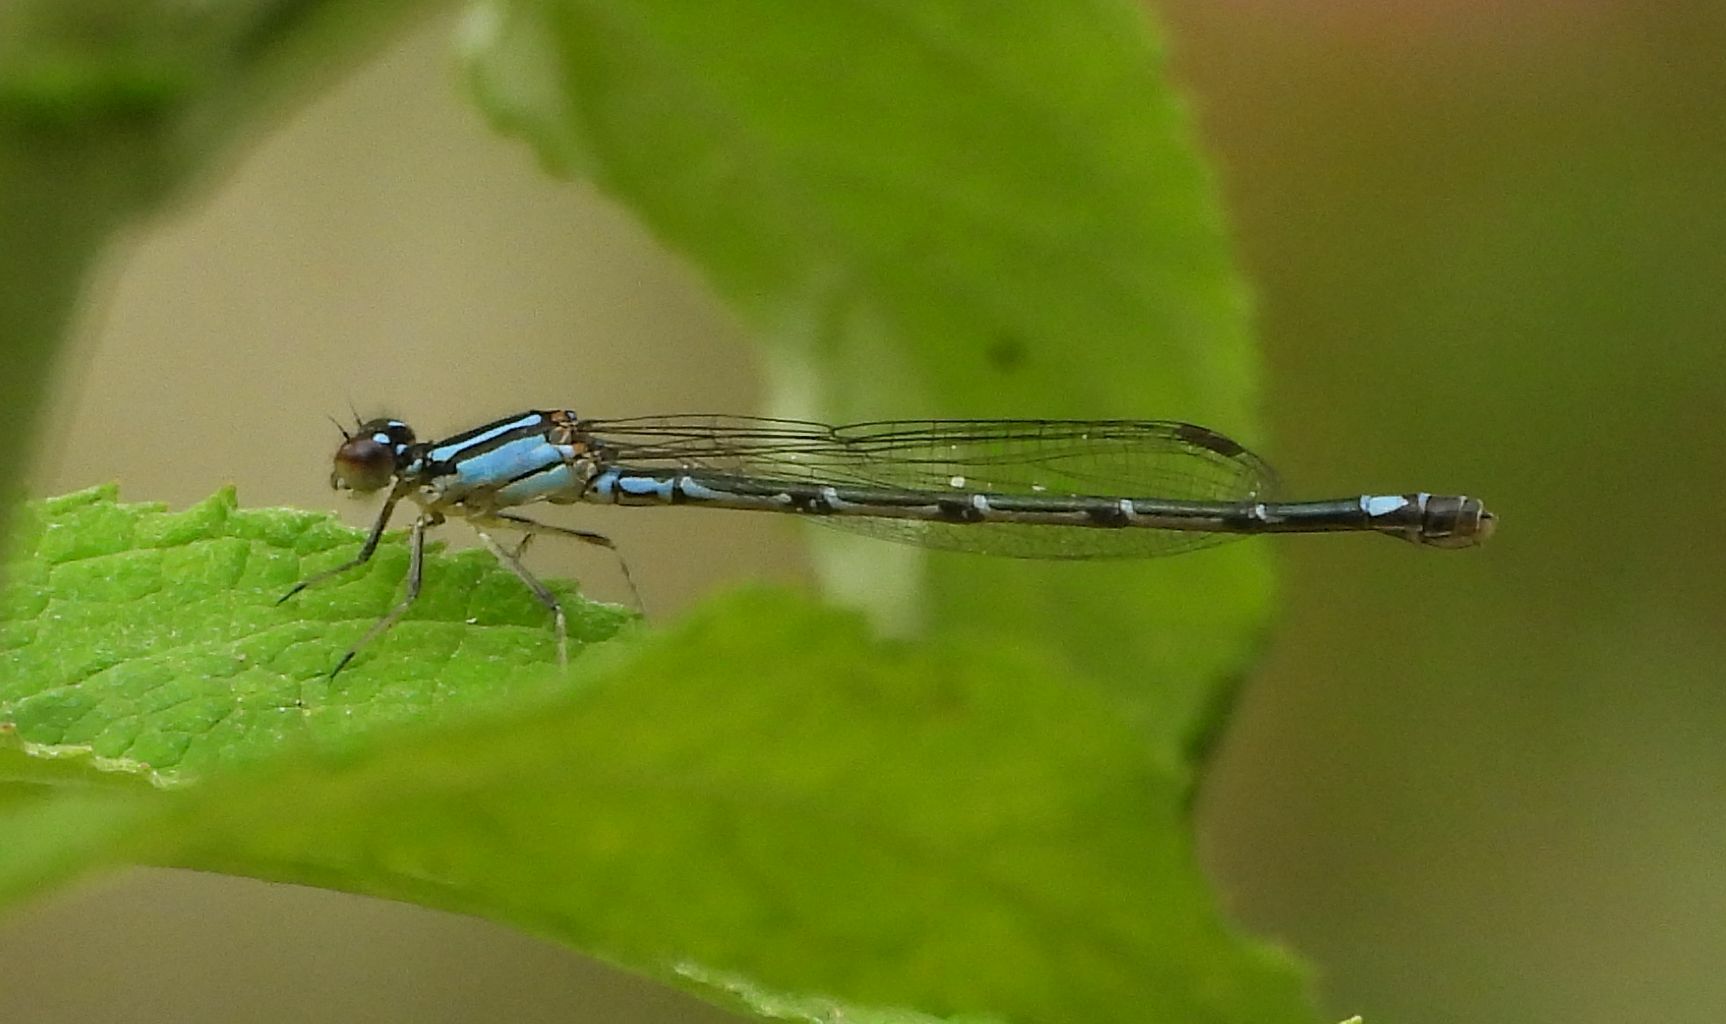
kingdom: Animalia
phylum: Arthropoda
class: Insecta
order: Odonata
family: Coenagrionidae
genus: Enallagma
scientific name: Enallagma geminatum
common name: Skimming bluet
